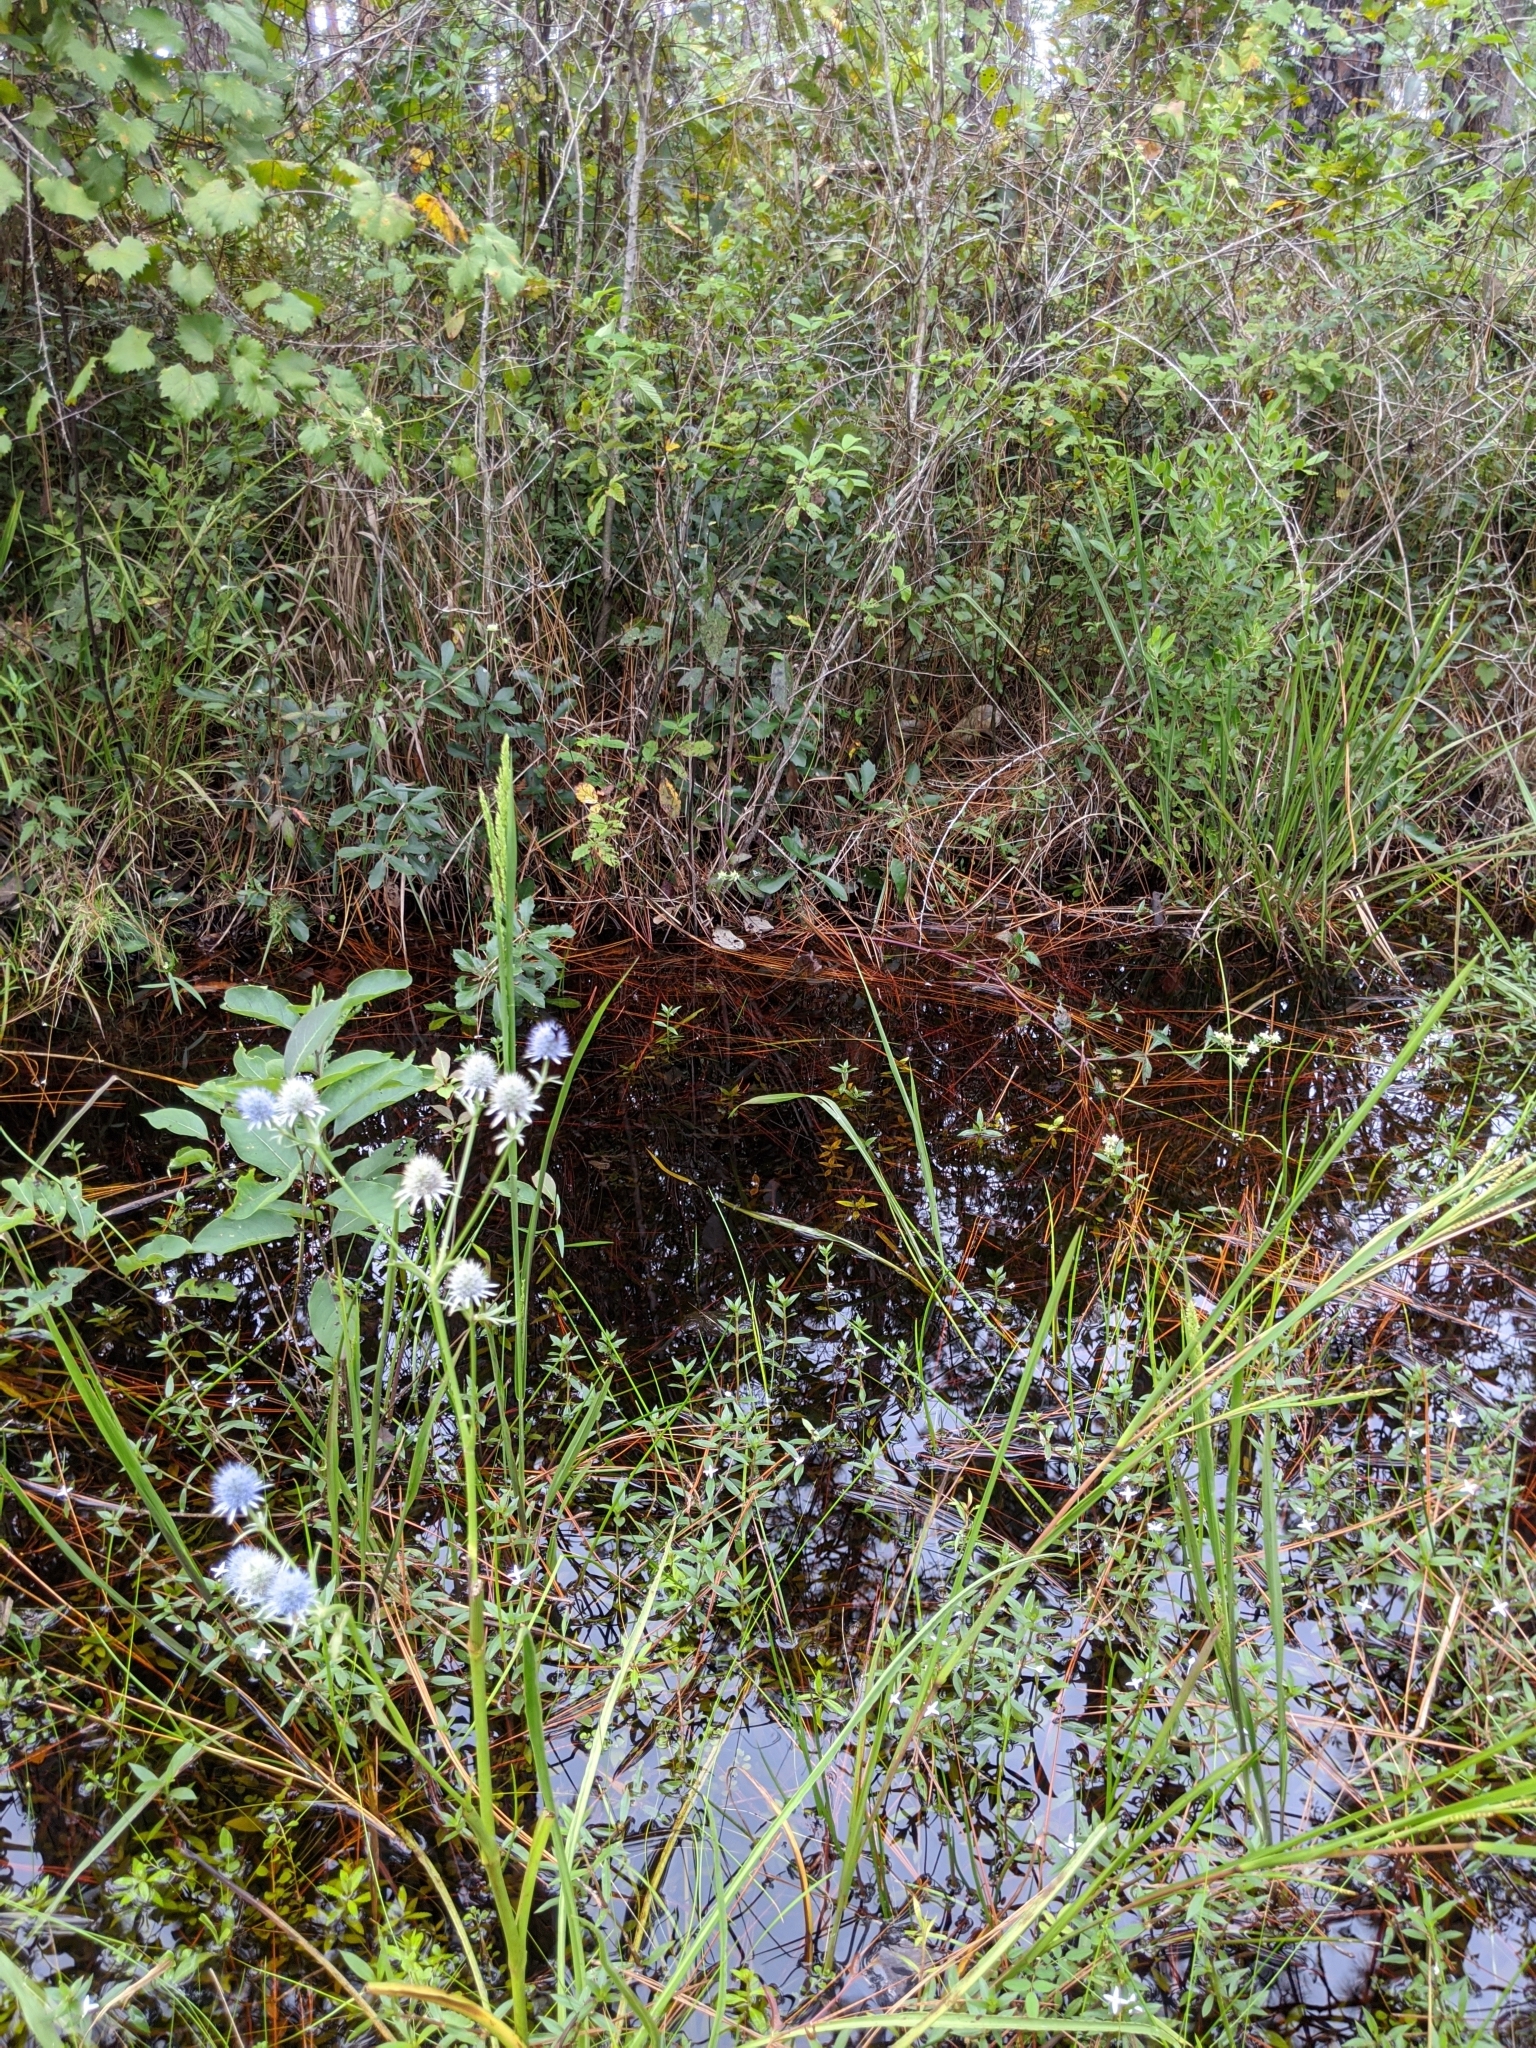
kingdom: Plantae
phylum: Tracheophyta
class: Magnoliopsida
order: Apiales
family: Apiaceae
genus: Eryngium
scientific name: Eryngium aquaticum
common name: Water eryngo
